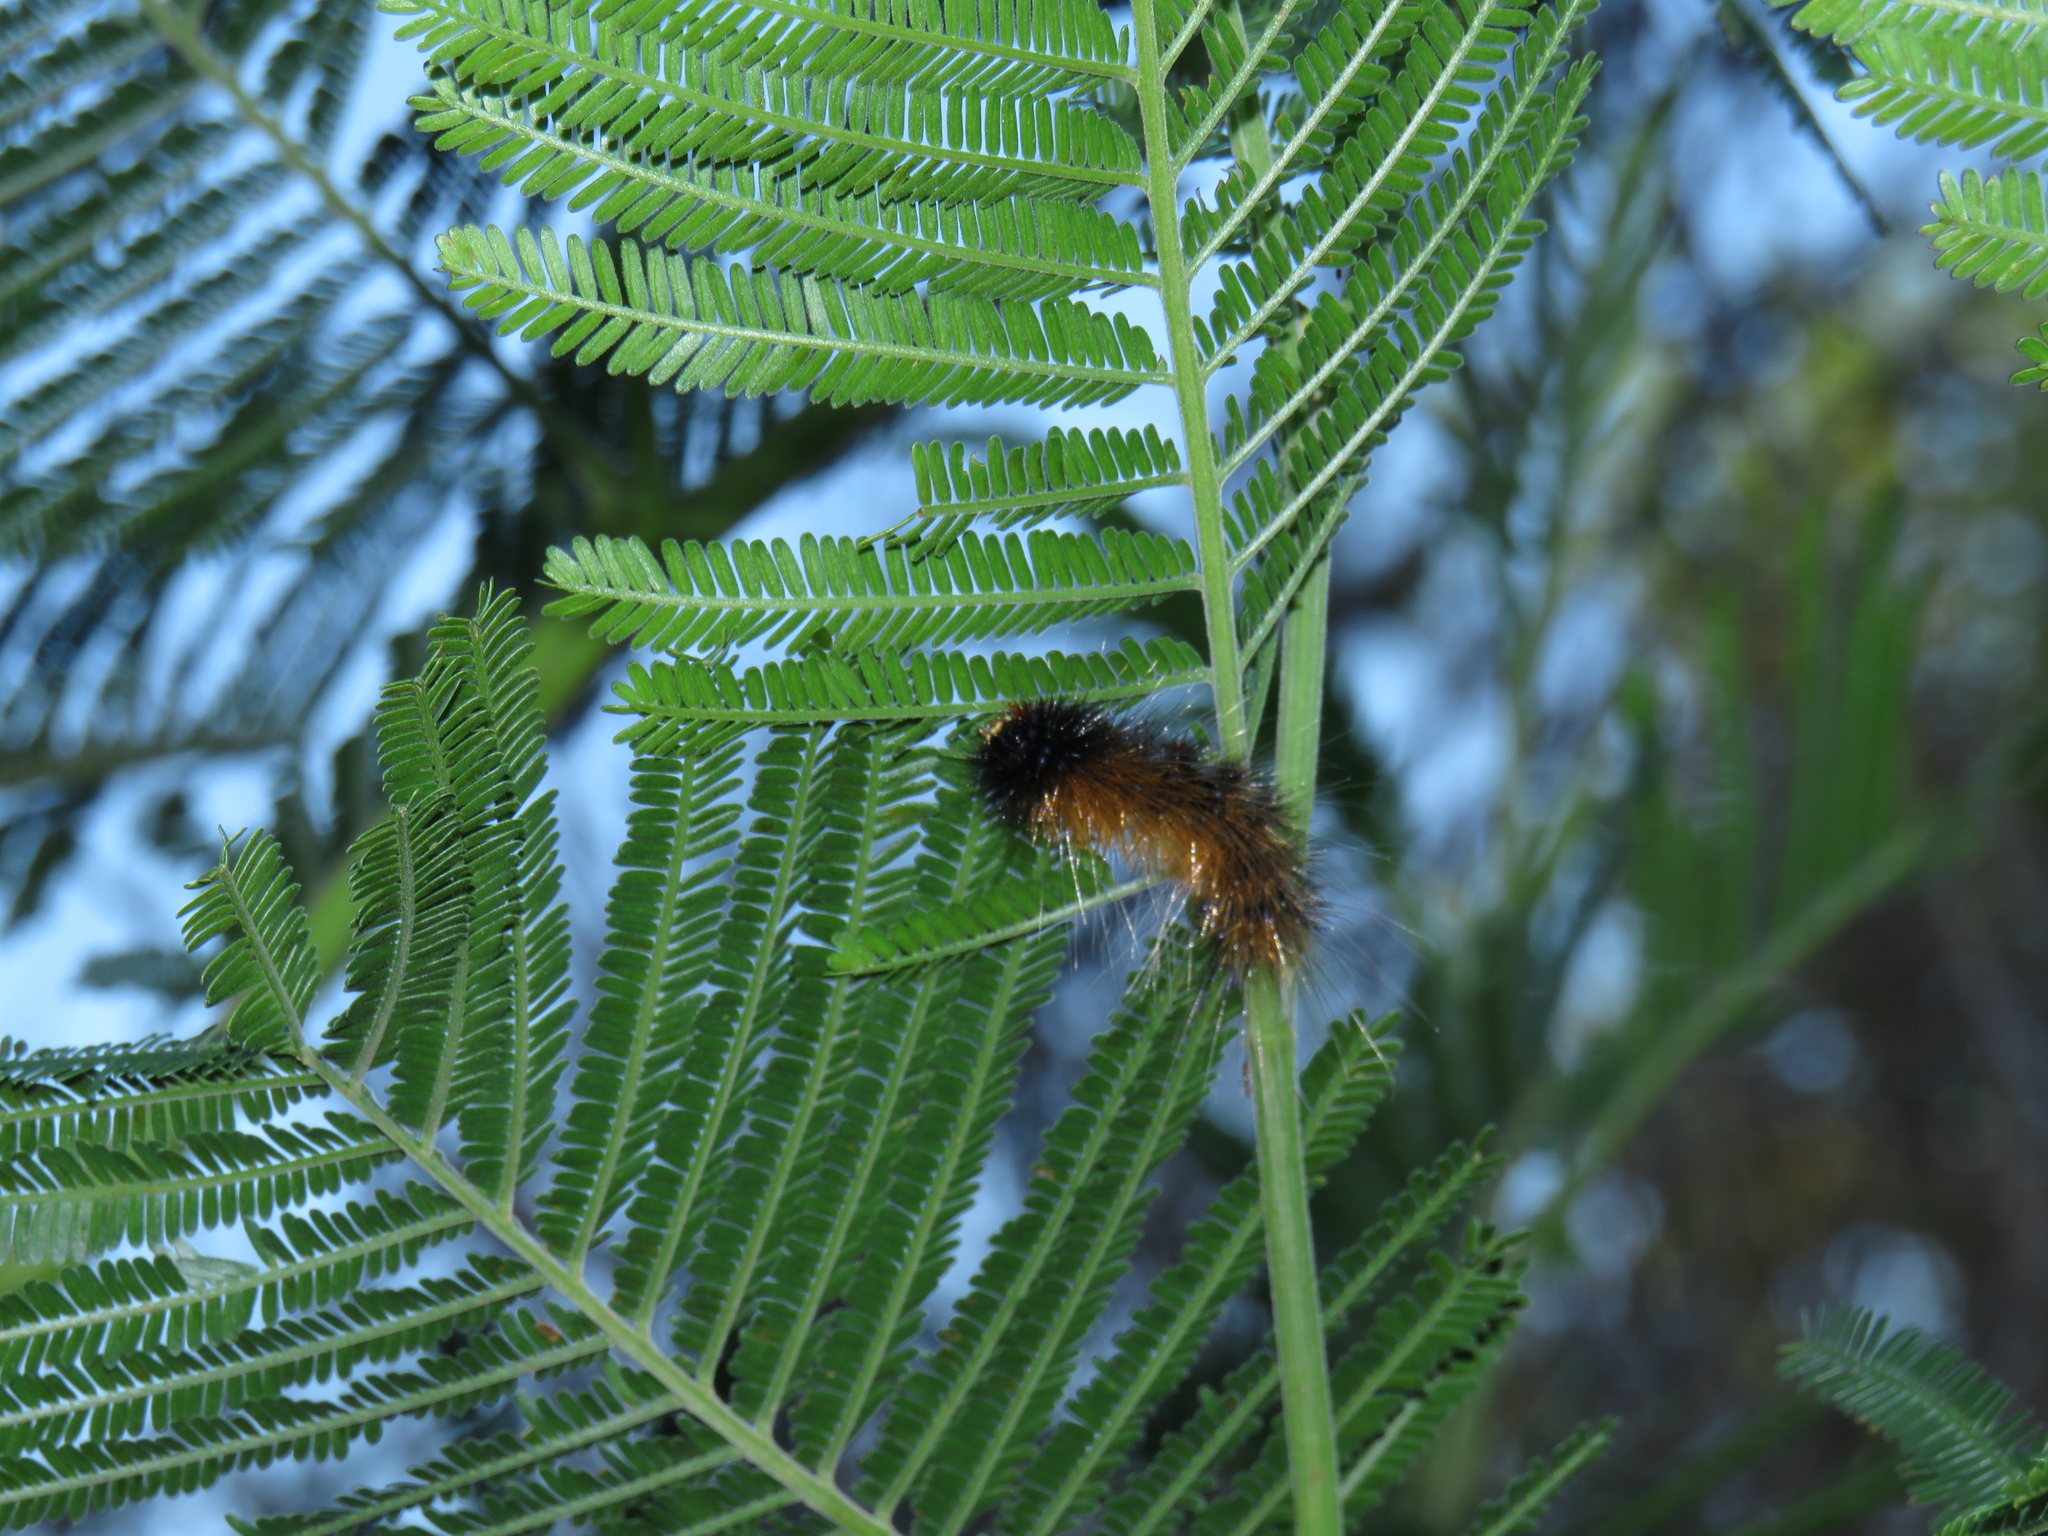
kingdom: Animalia
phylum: Arthropoda
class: Insecta
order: Lepidoptera
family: Erebidae
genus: Rhodogastria
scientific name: Rhodogastria amasis
